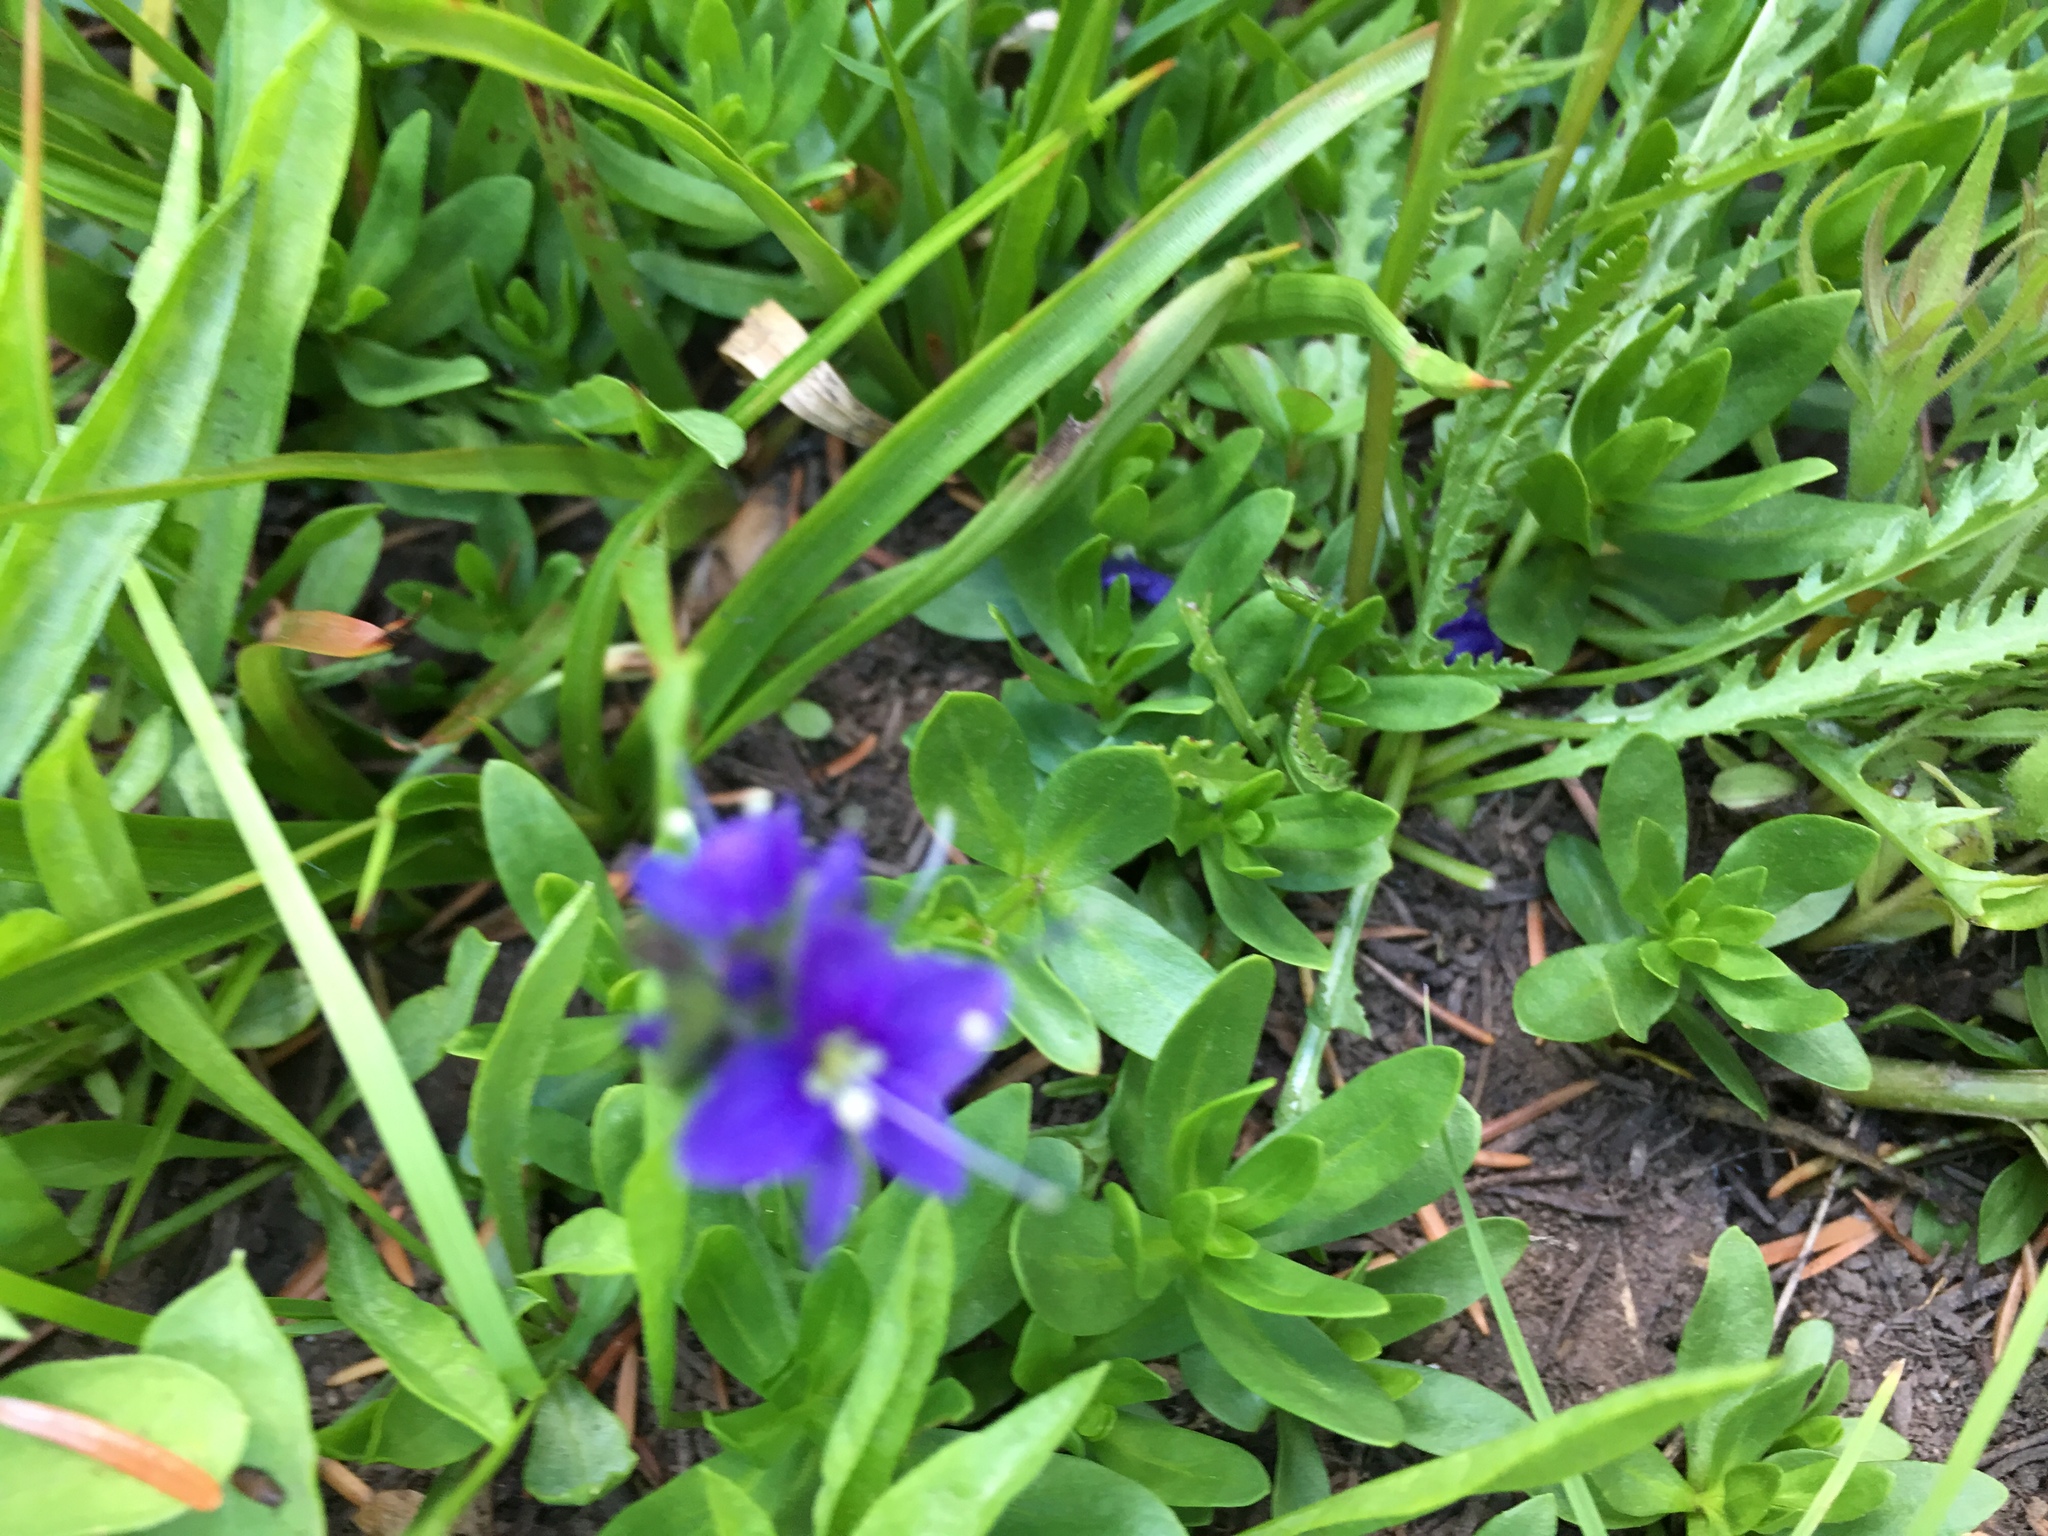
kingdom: Plantae
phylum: Tracheophyta
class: Magnoliopsida
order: Lamiales
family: Plantaginaceae
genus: Veronica
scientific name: Veronica cusickii
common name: Cusick's speedwell
